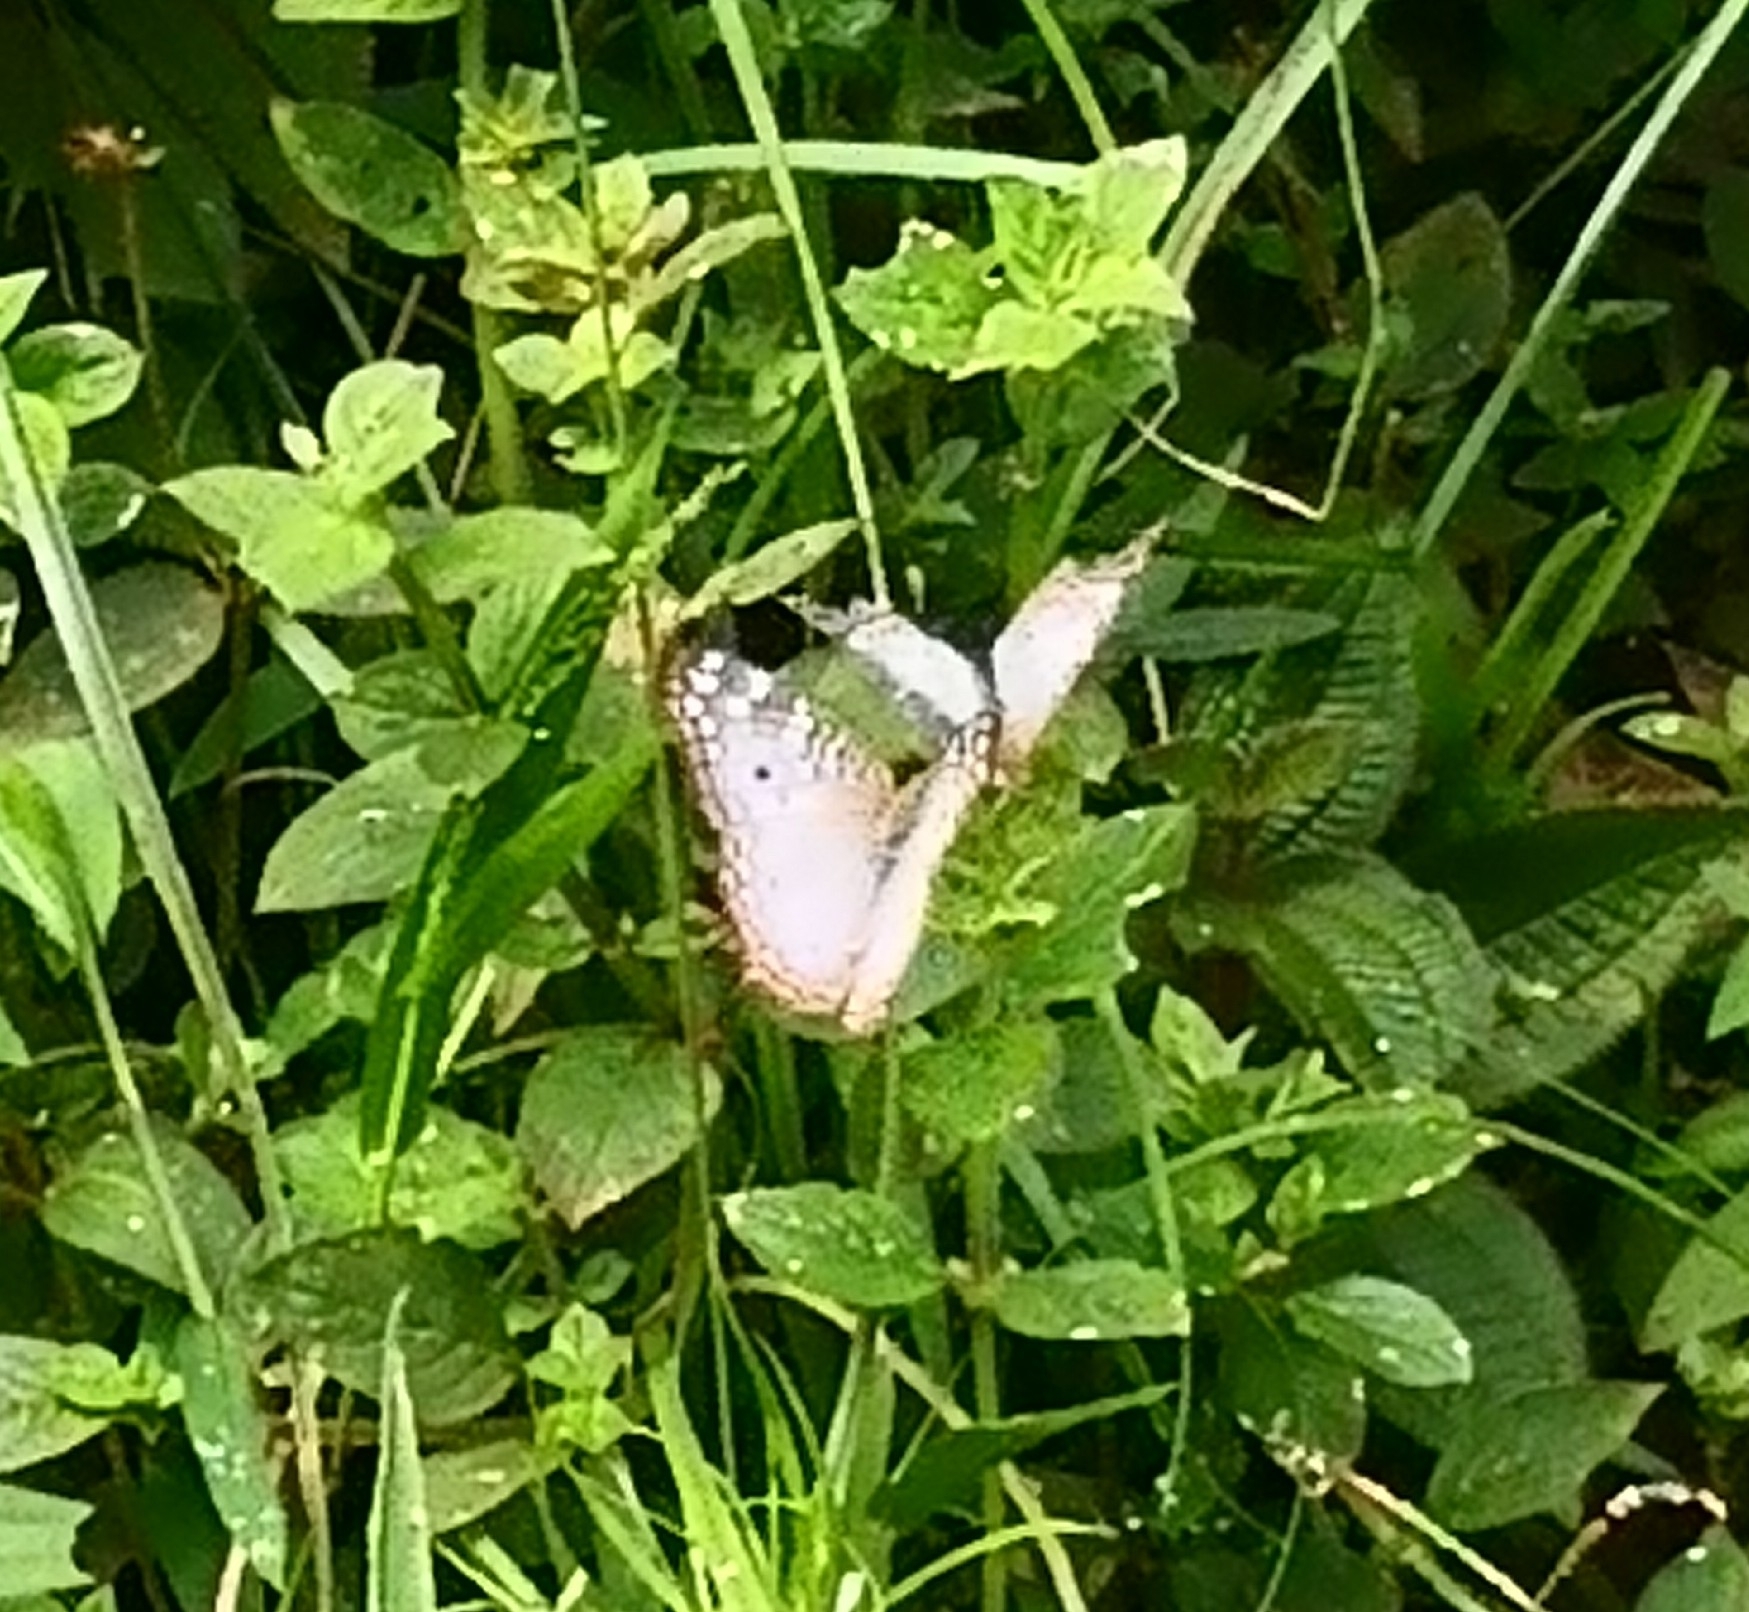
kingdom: Animalia
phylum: Arthropoda
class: Insecta
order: Lepidoptera
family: Nymphalidae
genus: Anartia
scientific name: Anartia jatrophae
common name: White peacock
